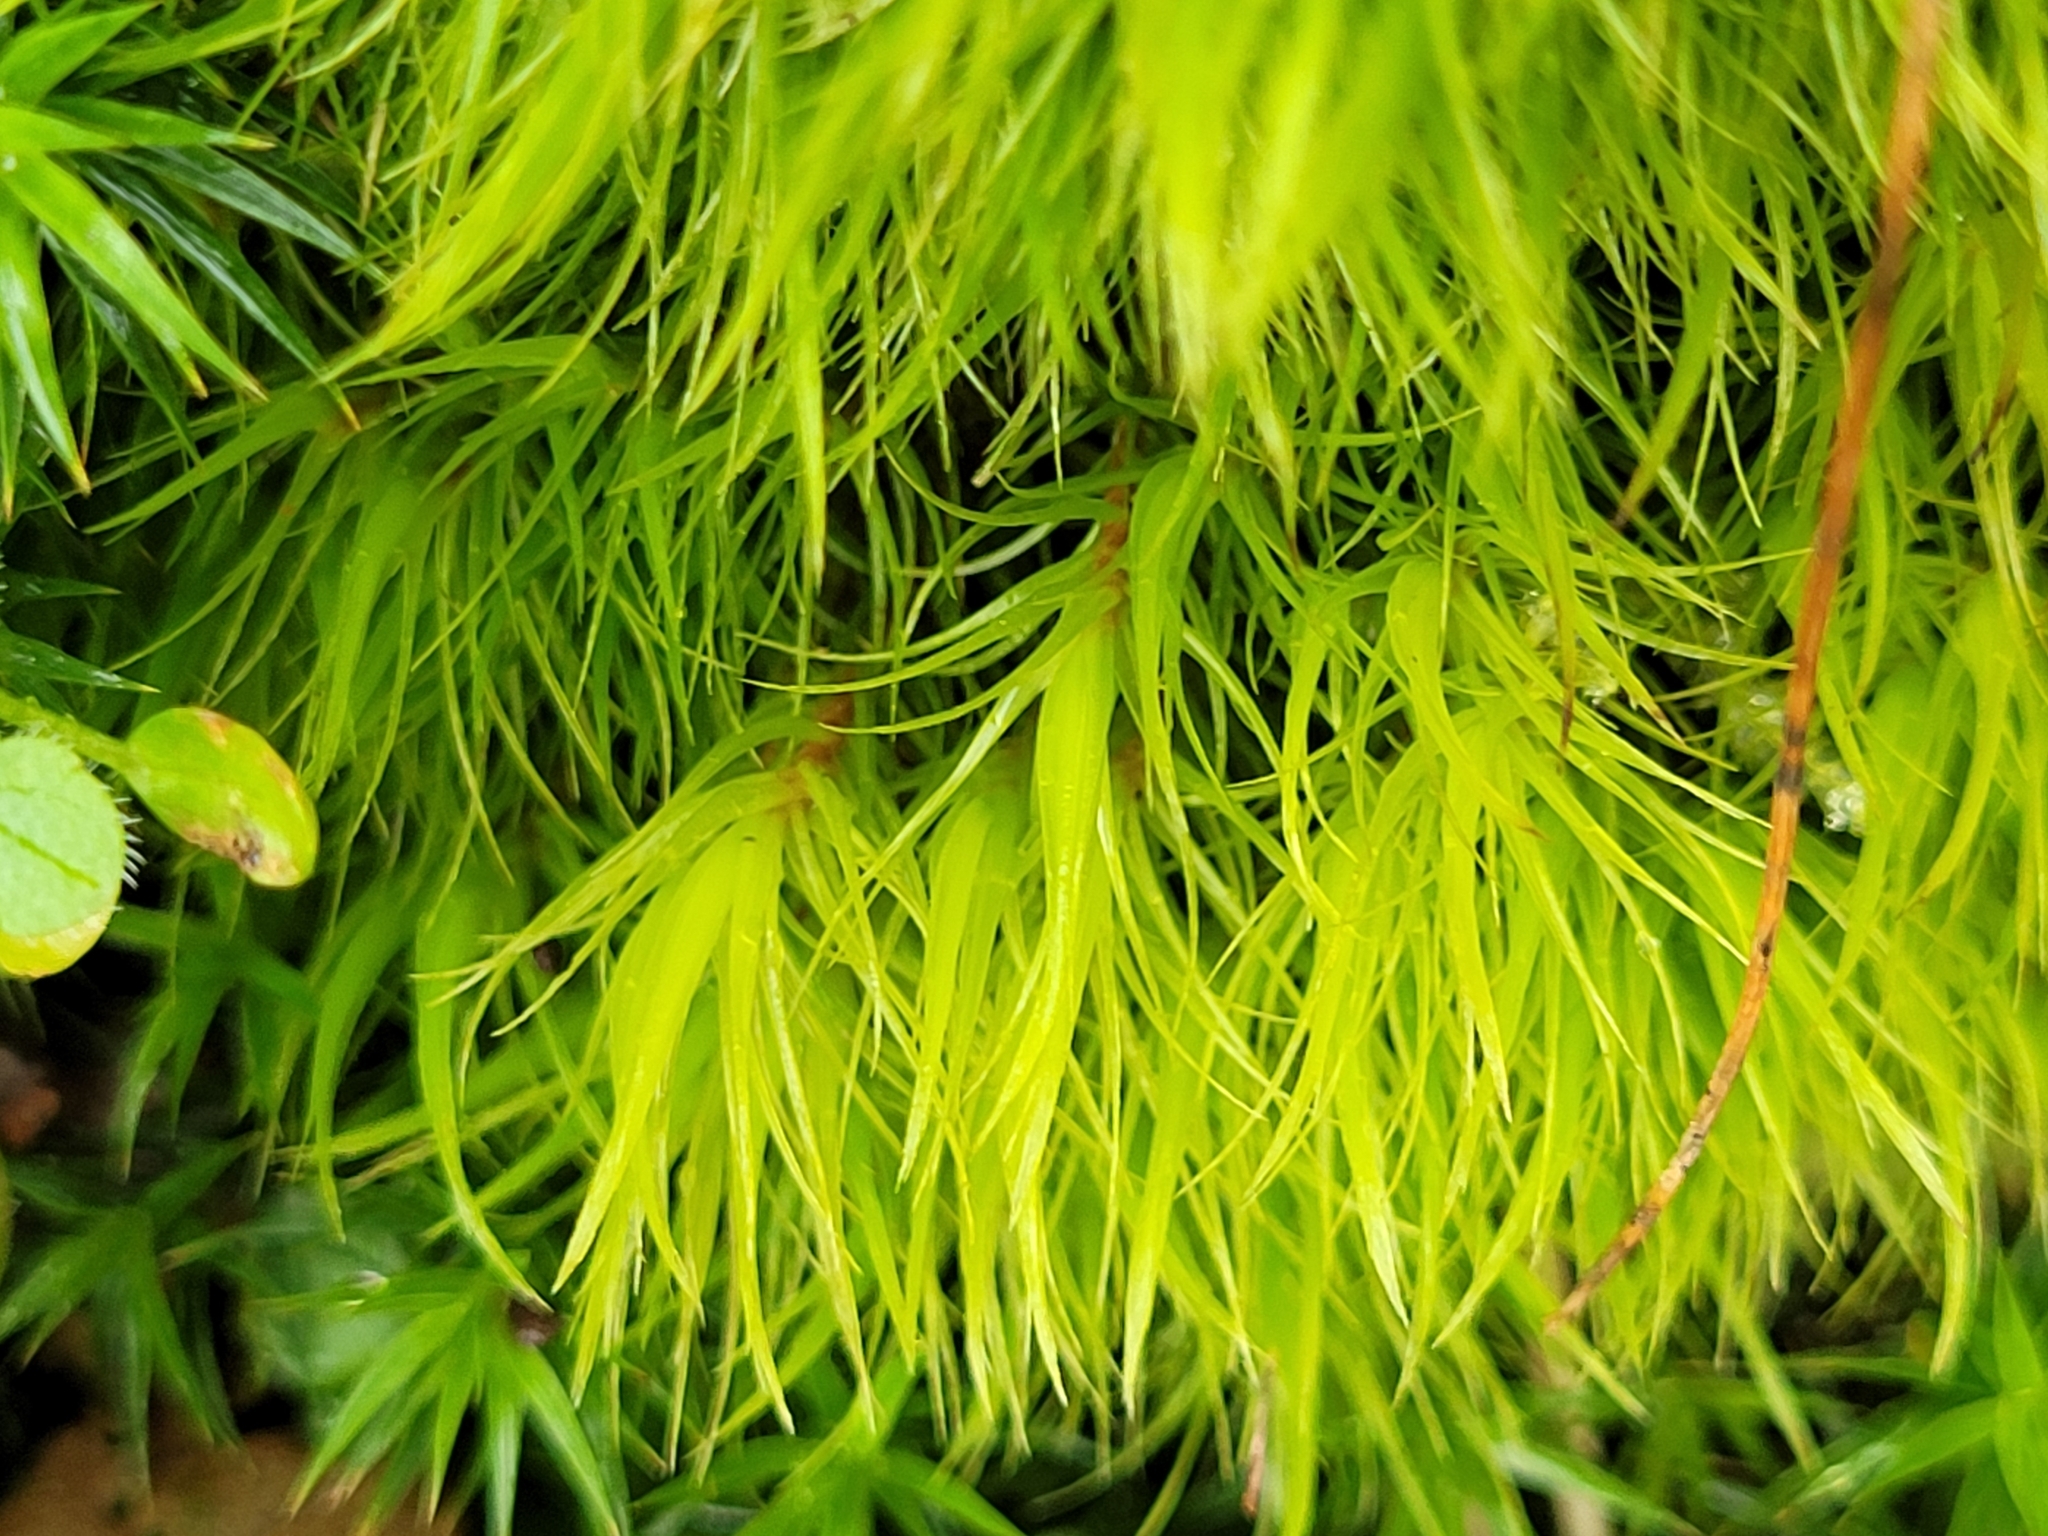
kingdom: Plantae
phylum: Bryophyta
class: Bryopsida
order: Dicranales
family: Dicranaceae
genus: Dicranum
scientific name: Dicranum scoparium
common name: Broom fork-moss
